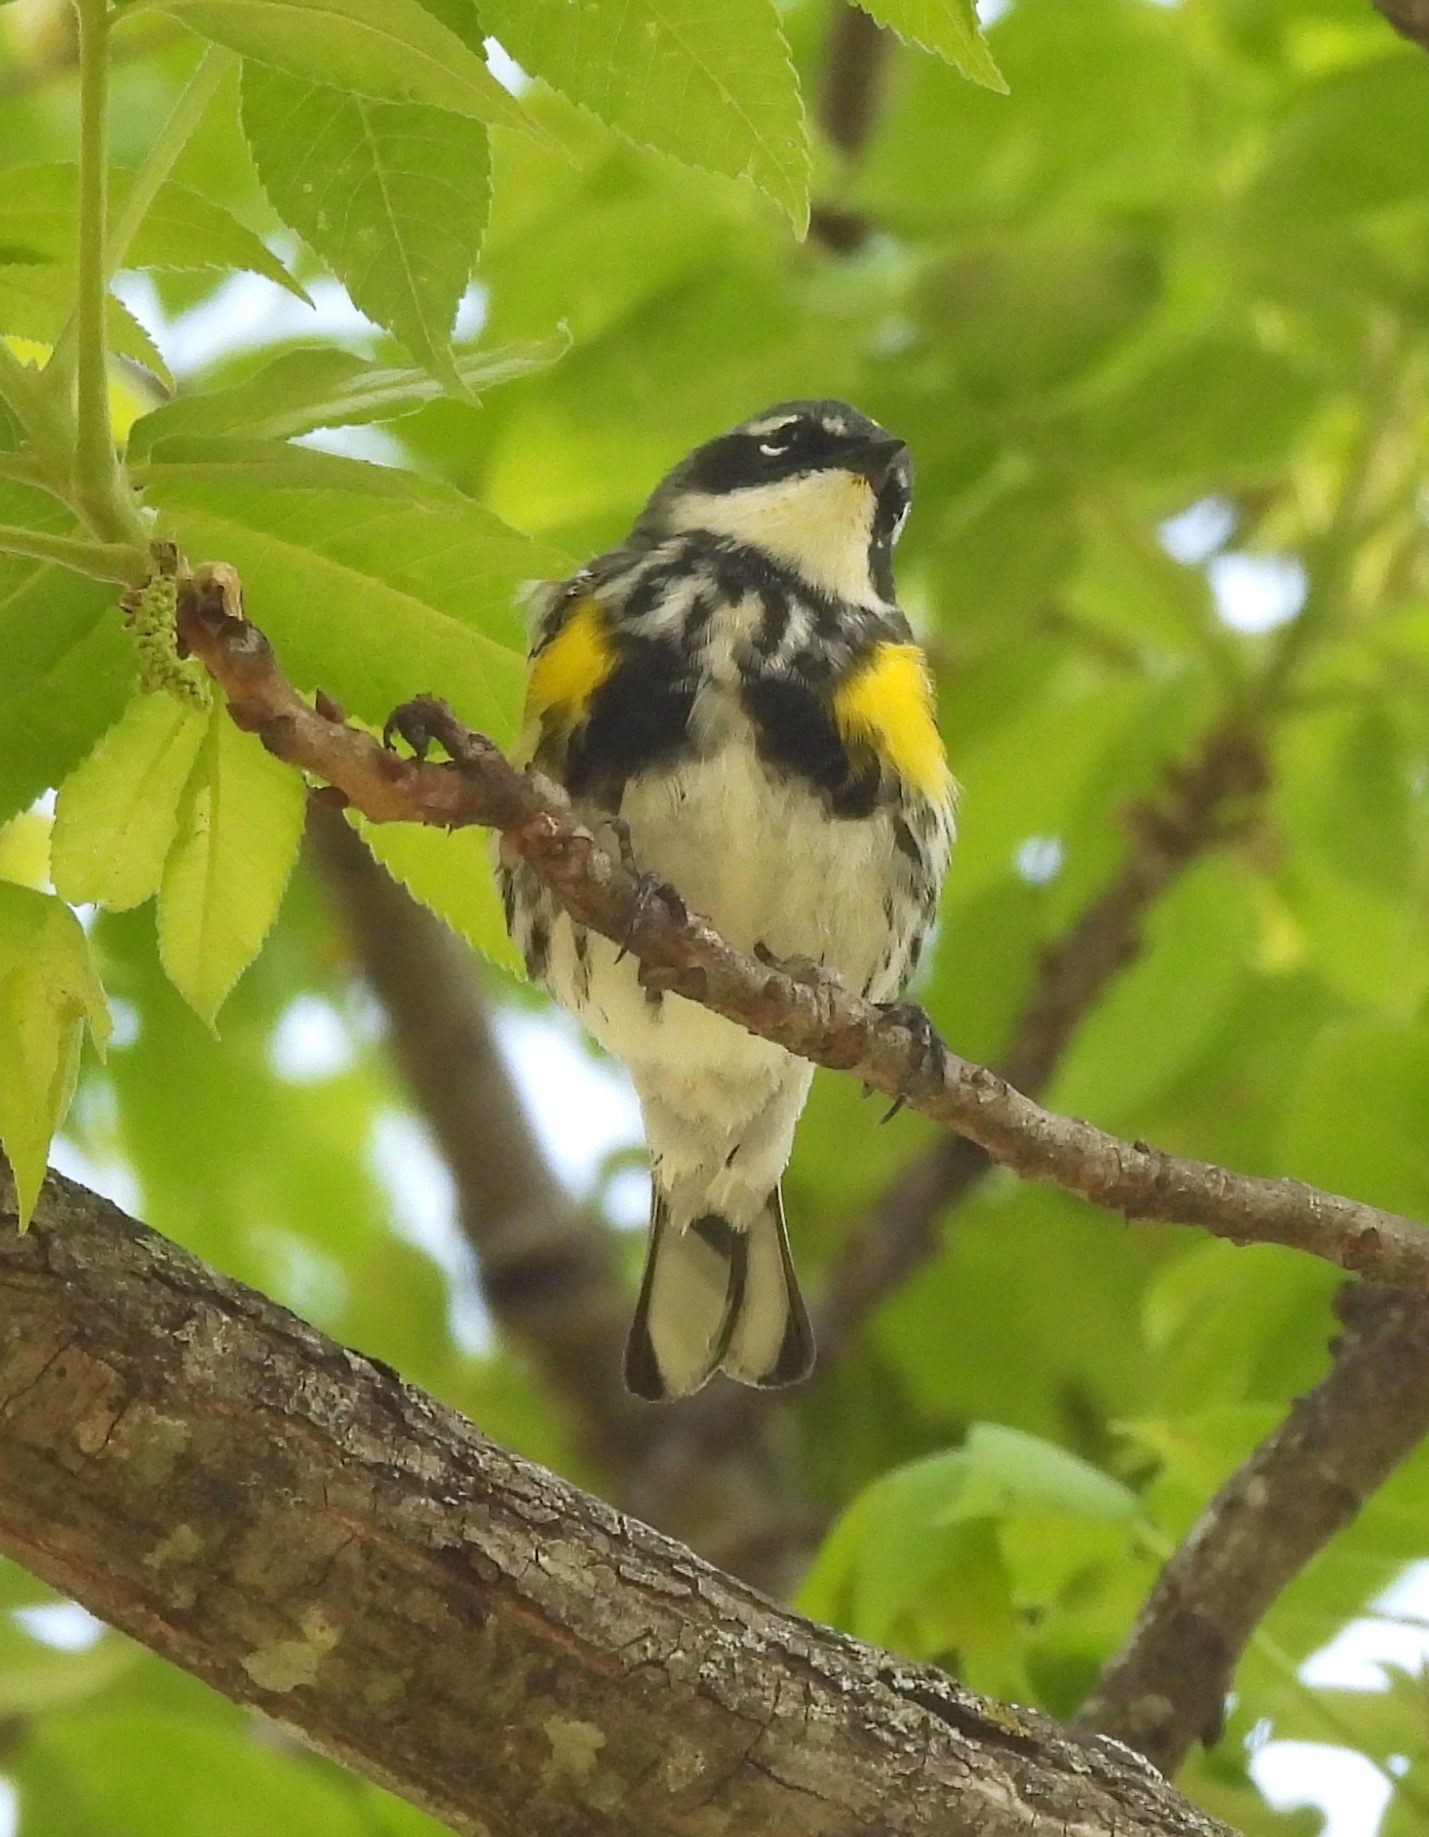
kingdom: Animalia
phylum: Chordata
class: Aves
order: Passeriformes
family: Parulidae
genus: Setophaga
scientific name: Setophaga coronata
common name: Myrtle warbler
